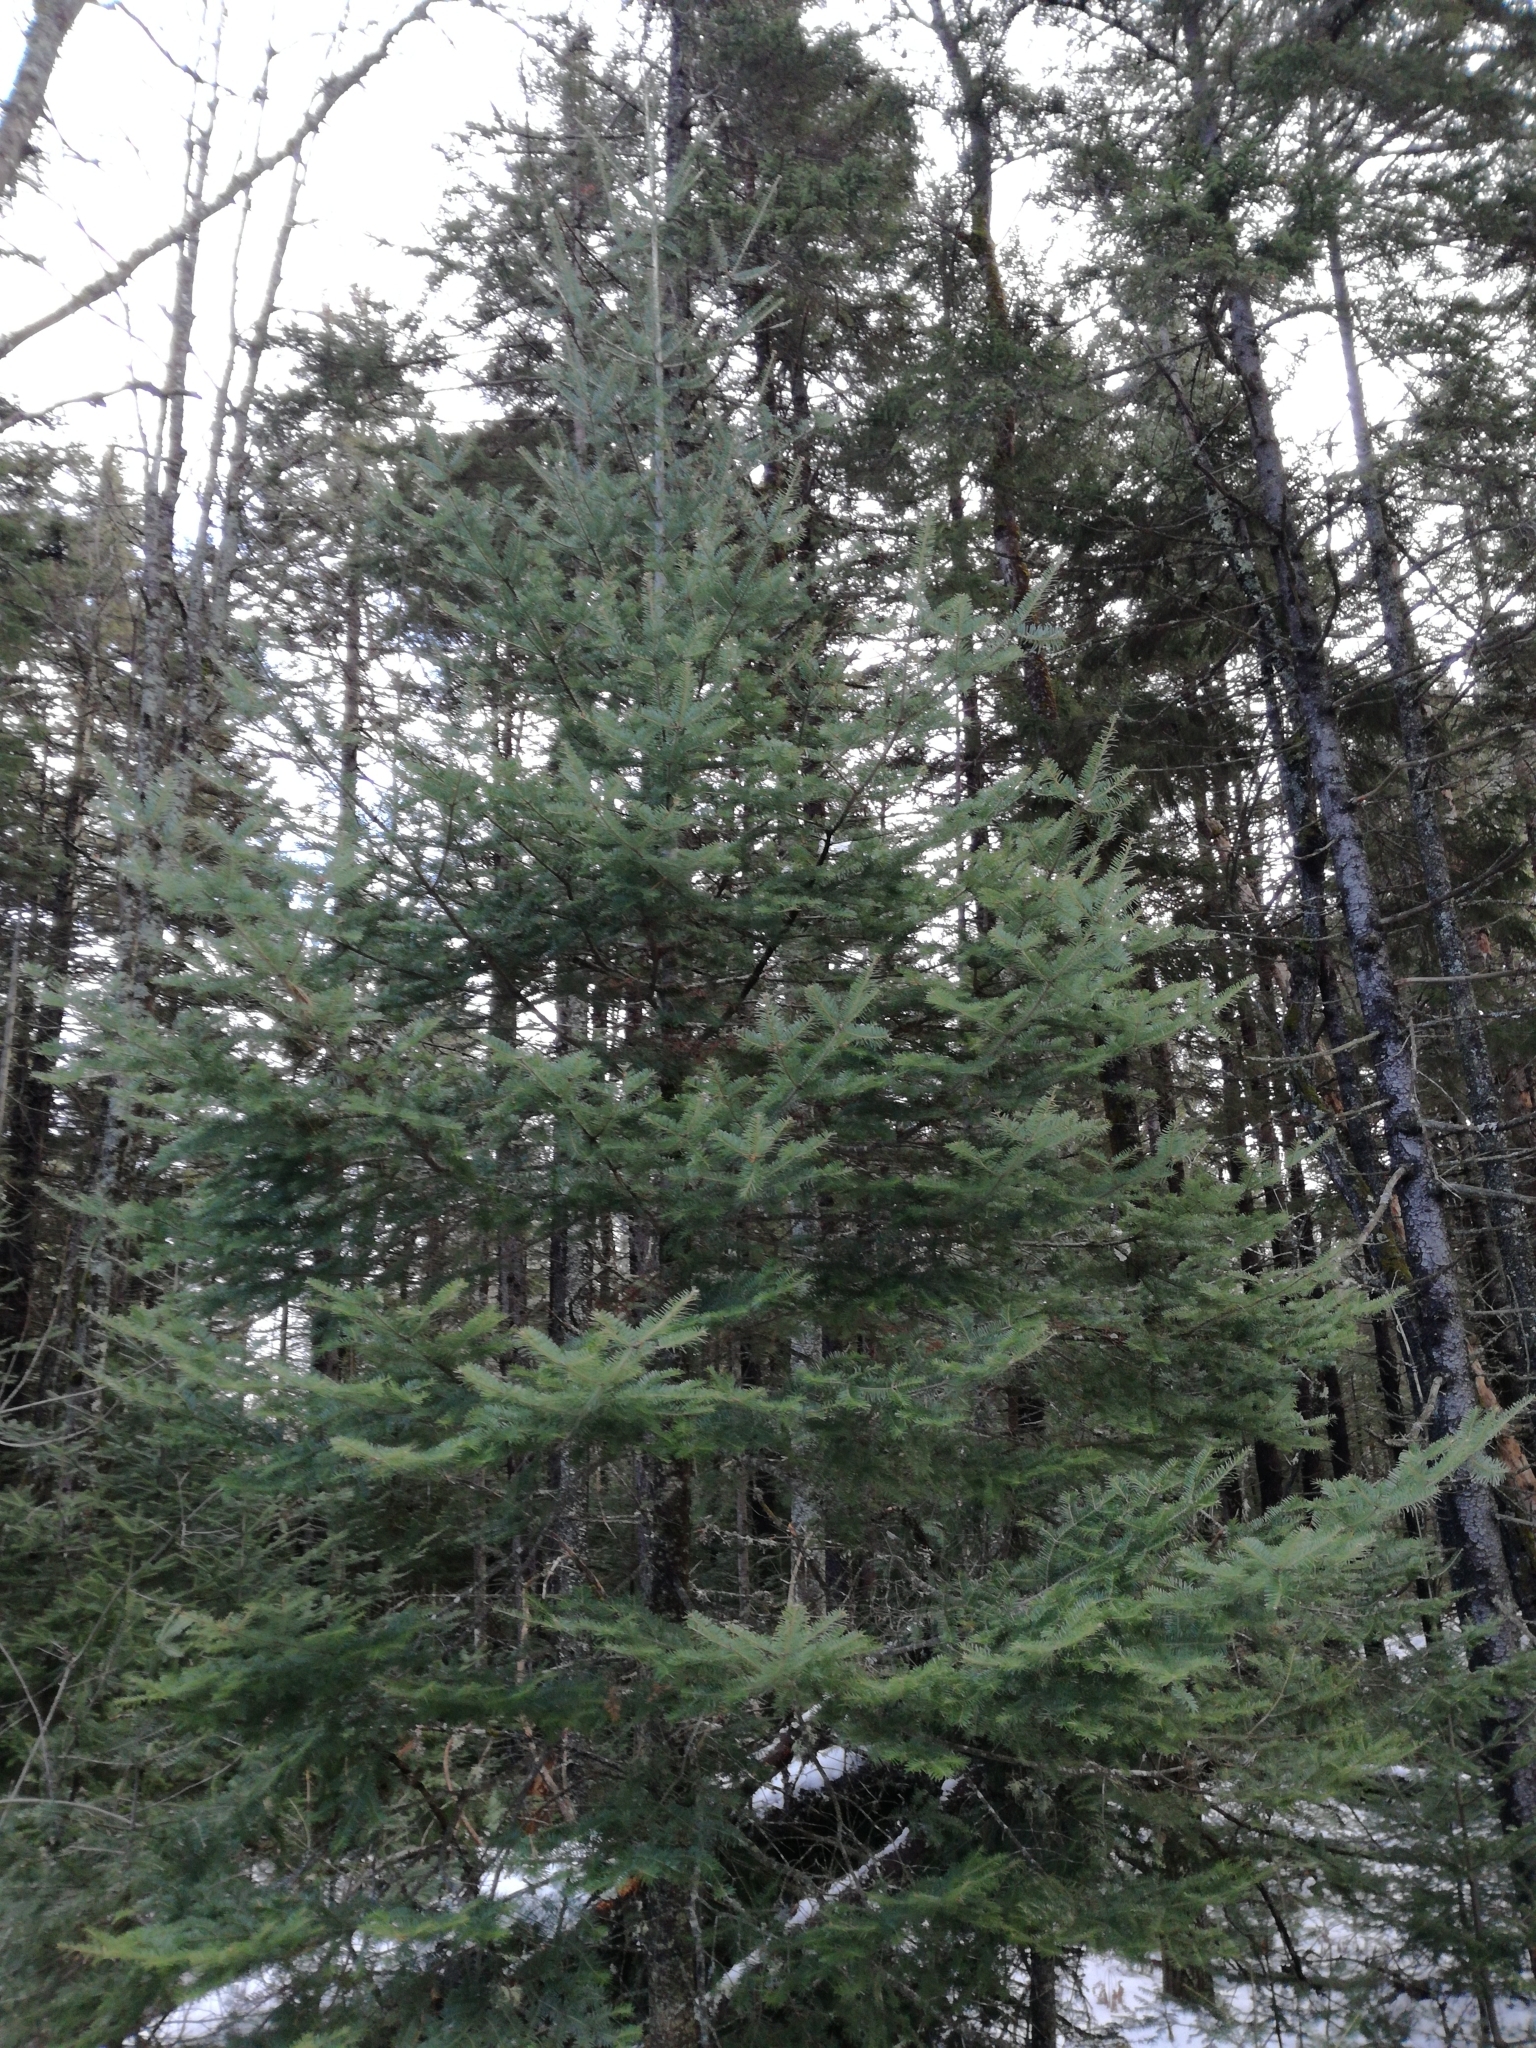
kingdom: Plantae
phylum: Tracheophyta
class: Pinopsida
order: Pinales
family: Pinaceae
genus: Abies
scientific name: Abies balsamea
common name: Balsam fir
